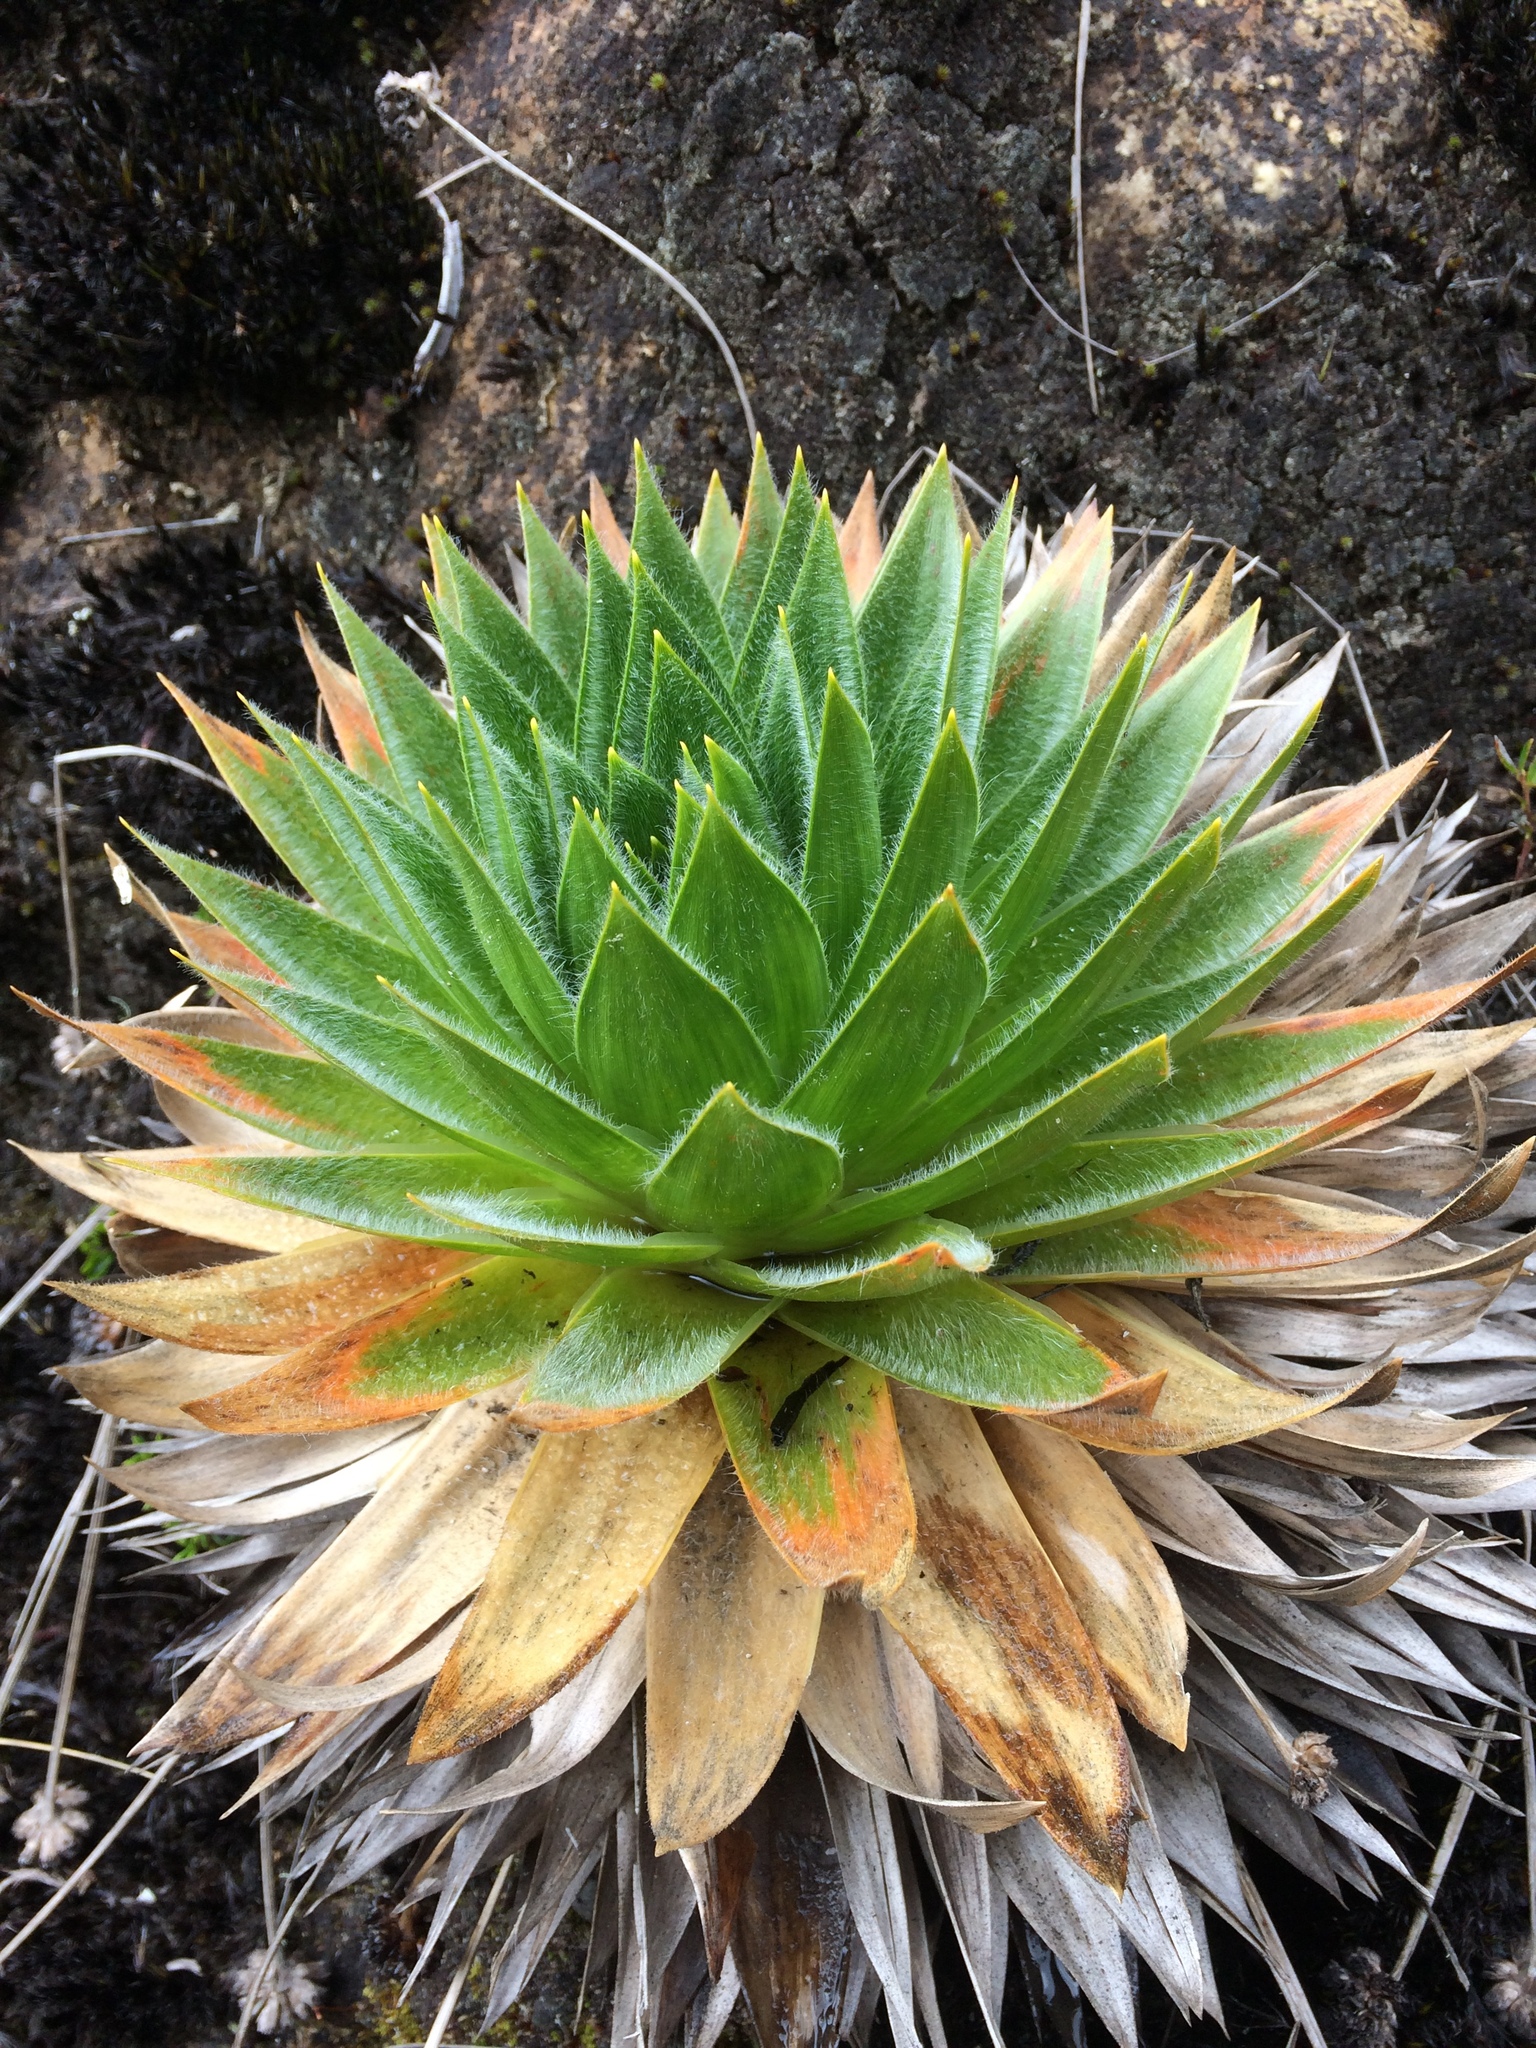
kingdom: Plantae
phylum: Tracheophyta
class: Liliopsida
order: Poales
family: Eriocaulaceae
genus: Paepalanthus
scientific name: Paepalanthus alpinus
